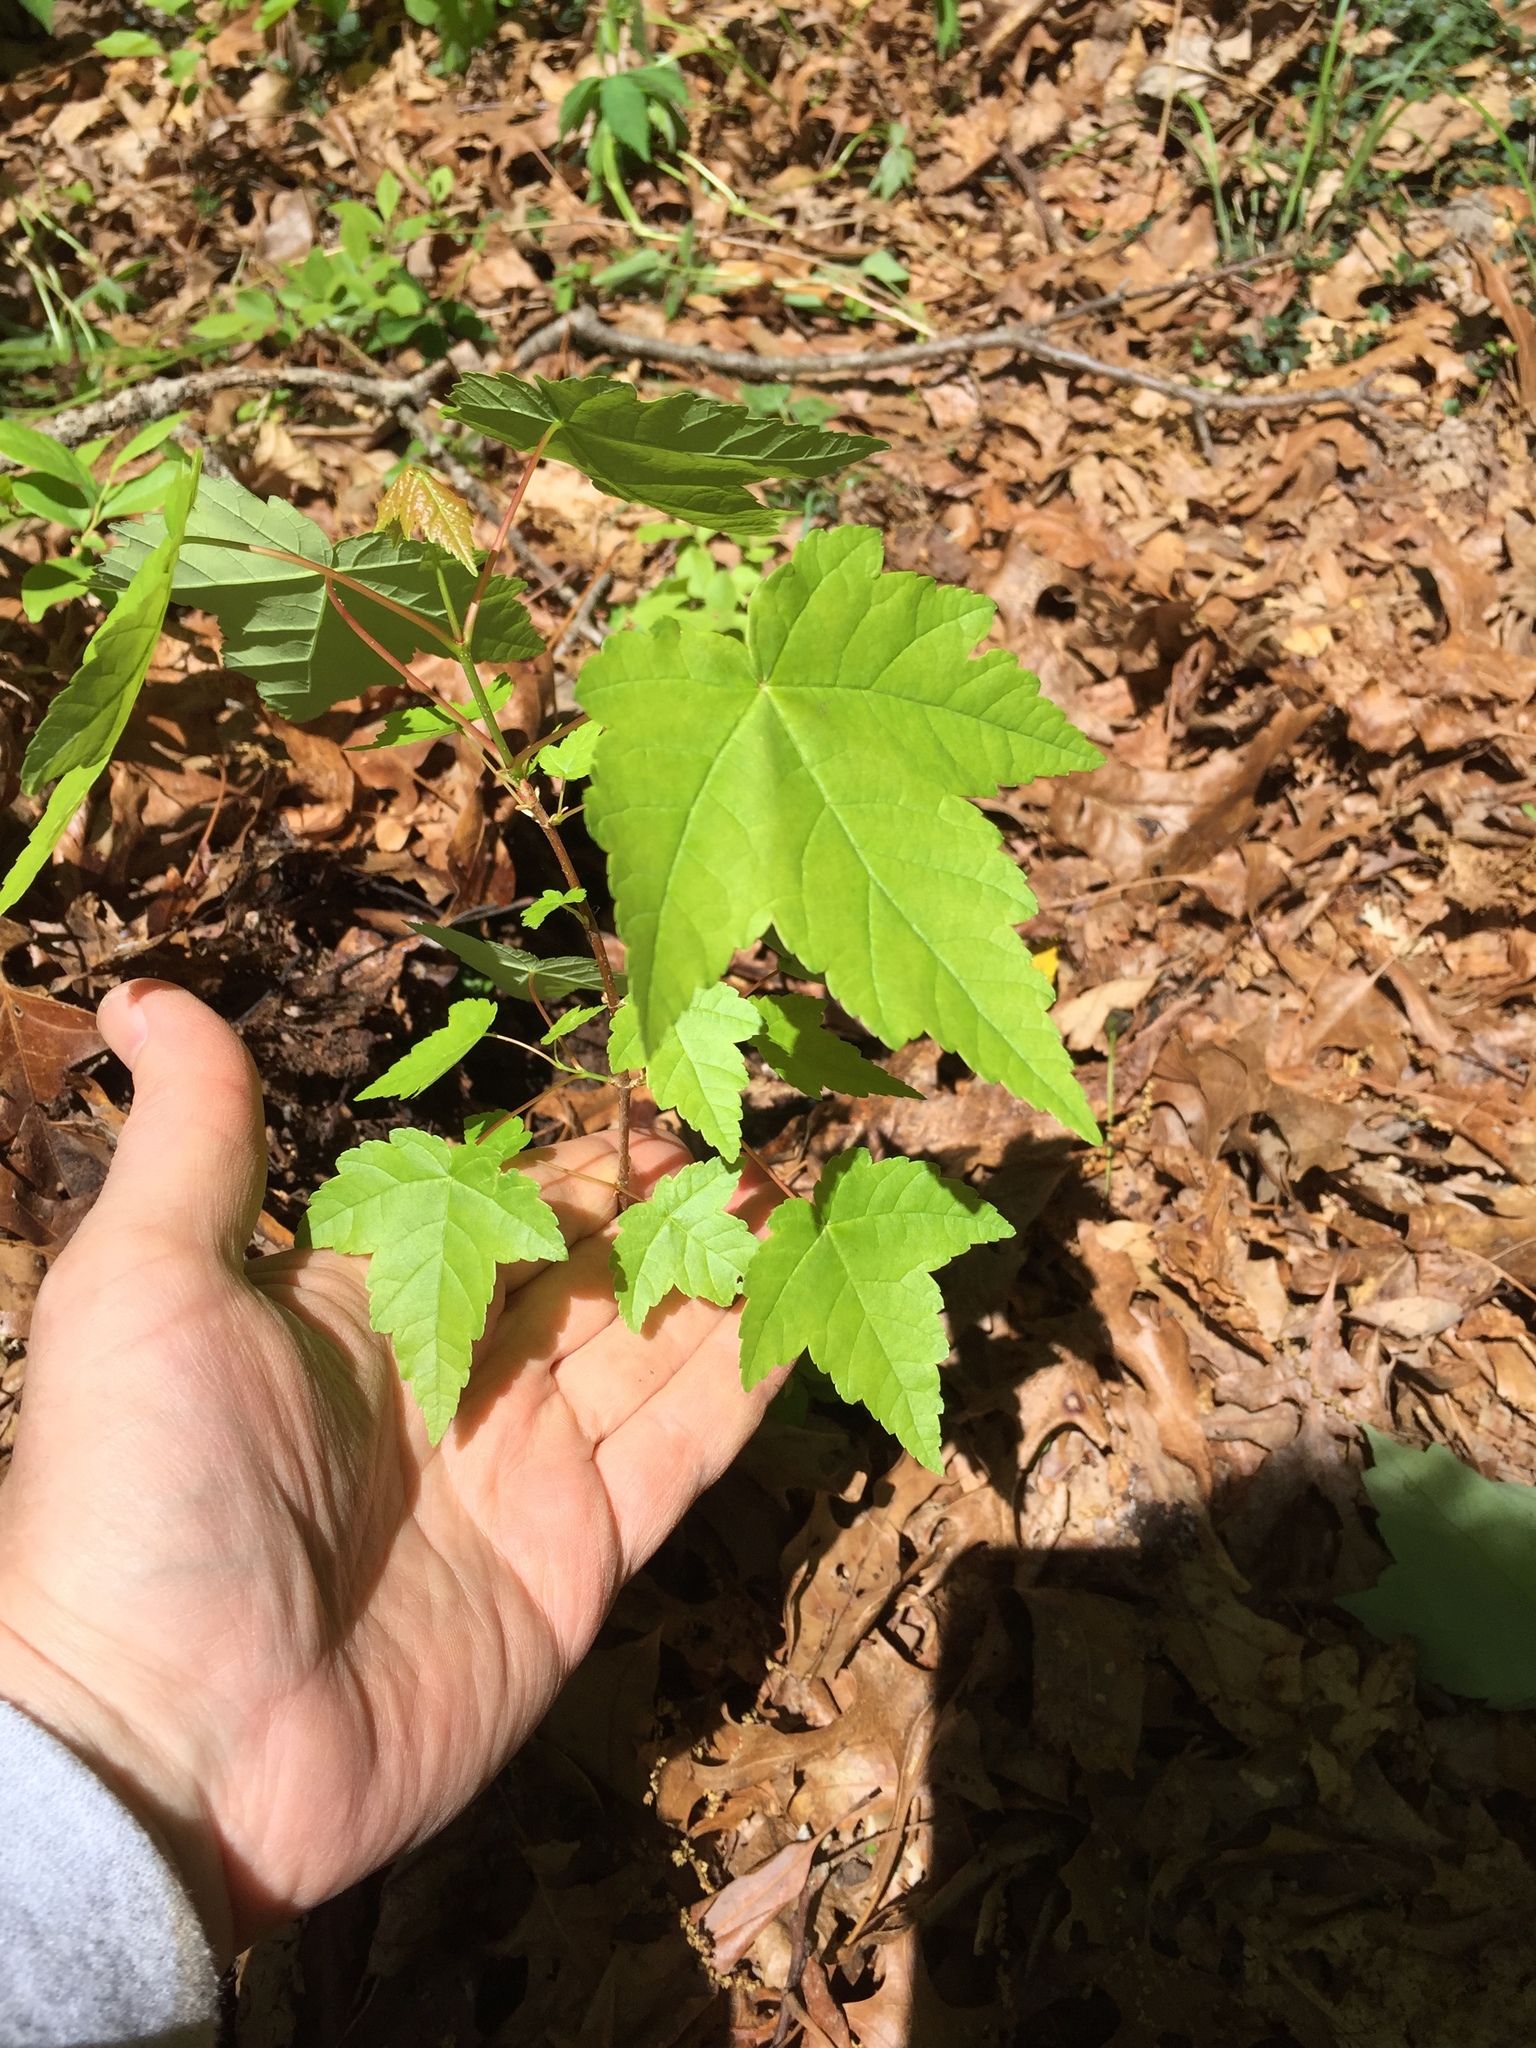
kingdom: Plantae
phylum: Tracheophyta
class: Magnoliopsida
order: Sapindales
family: Sapindaceae
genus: Acer
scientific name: Acer rubrum
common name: Red maple
